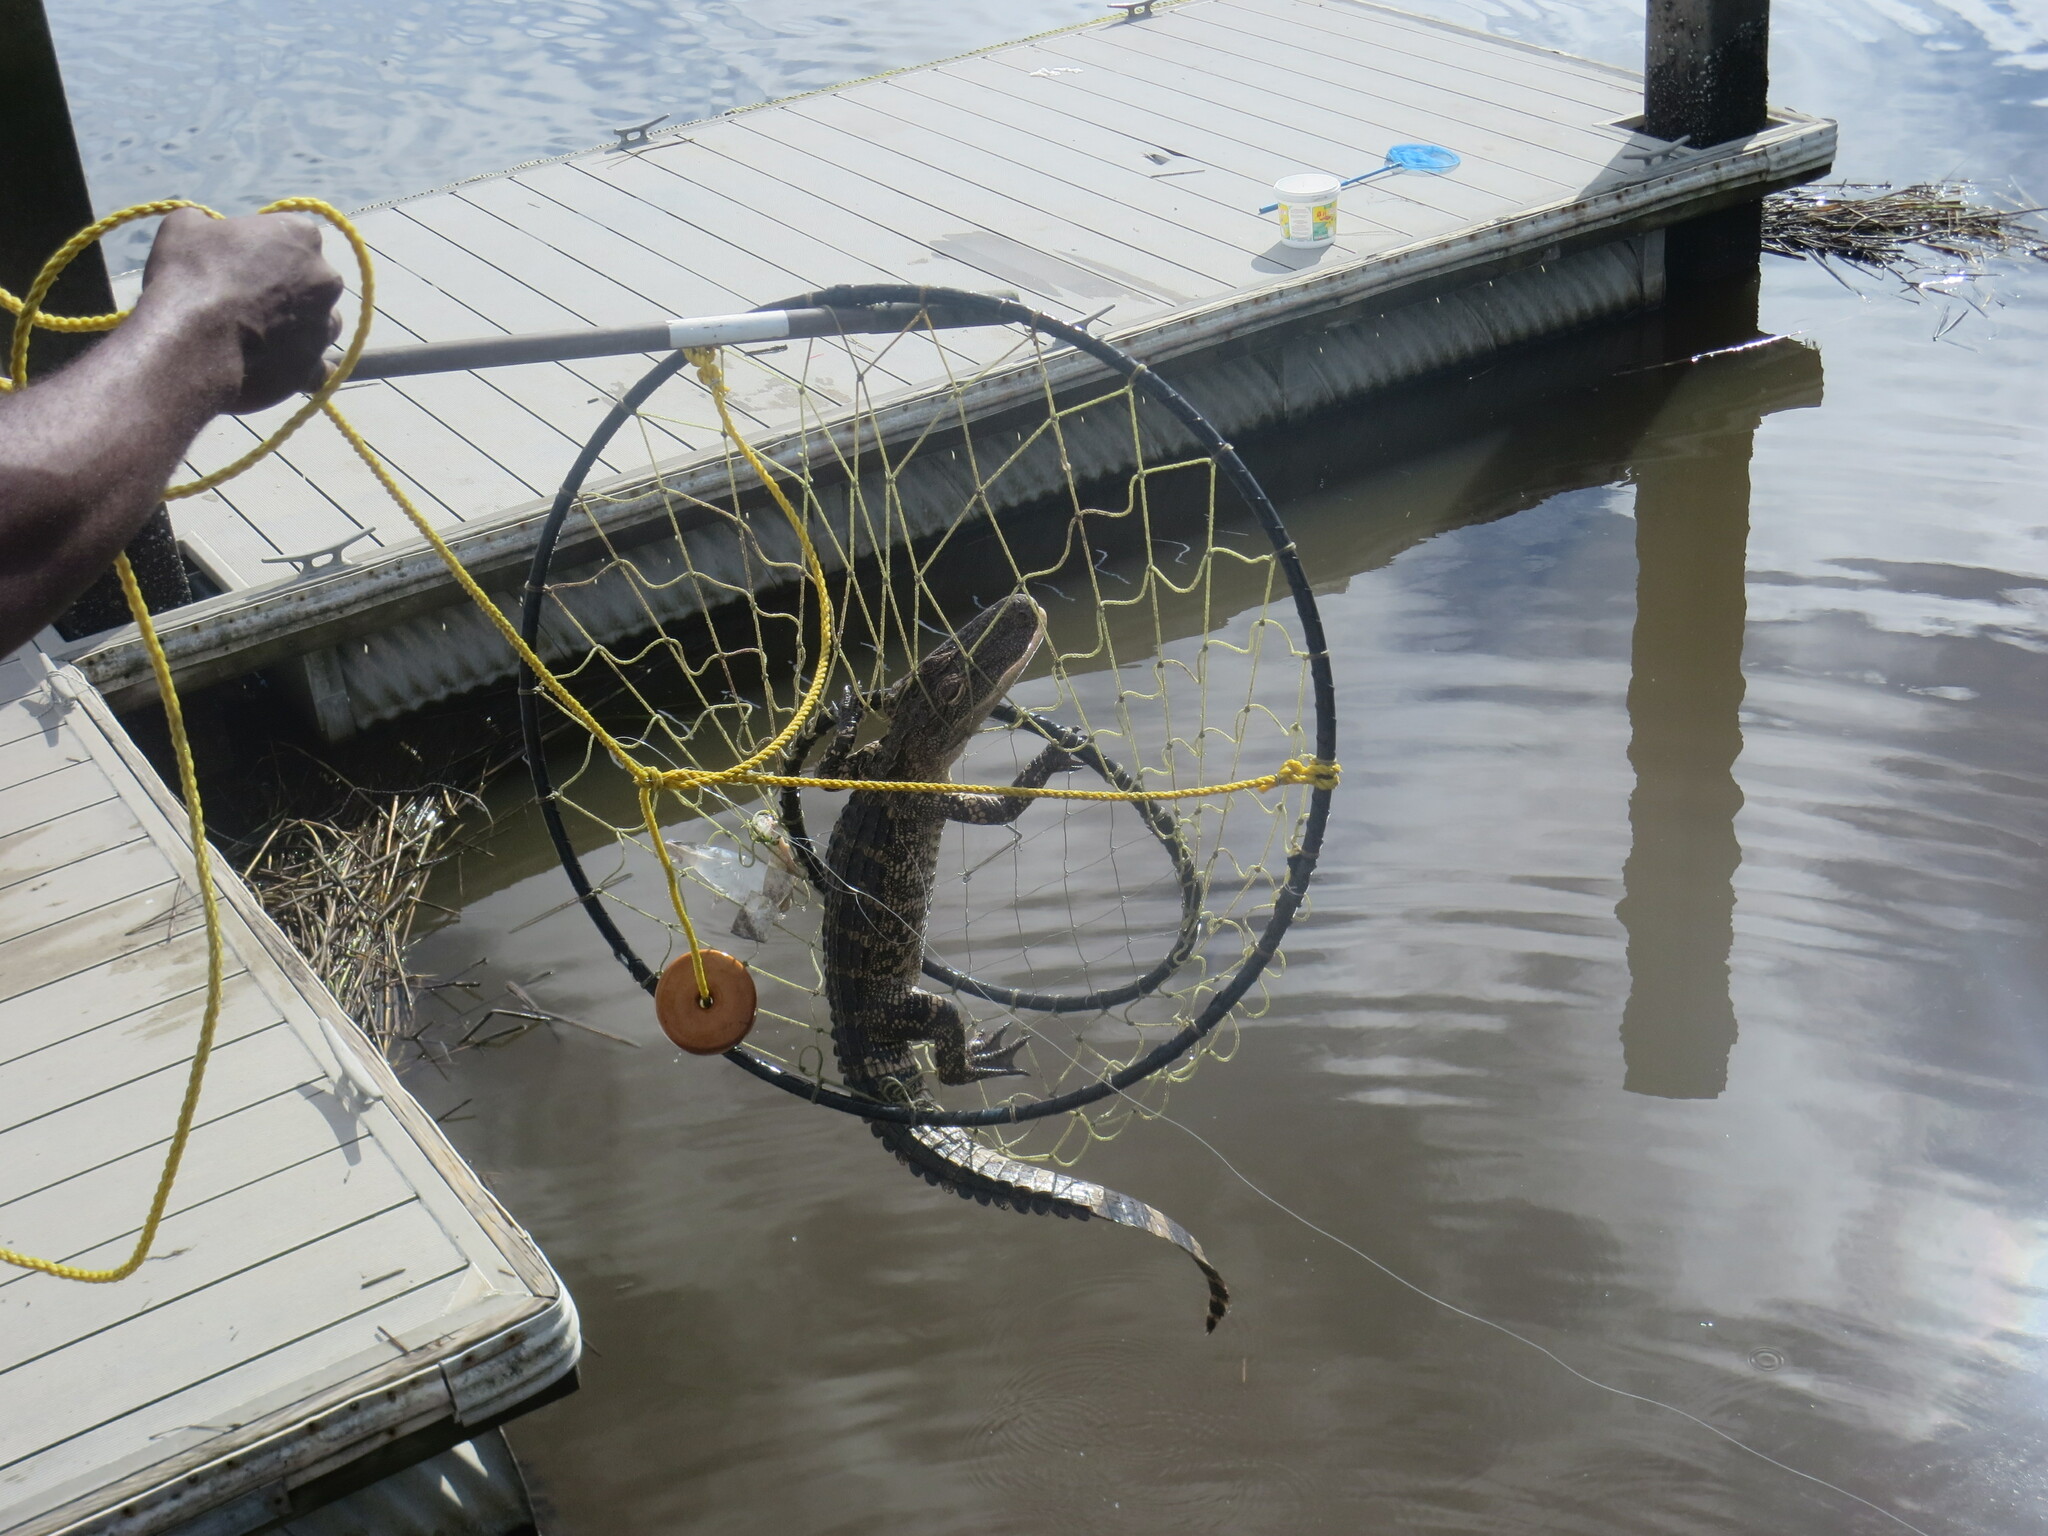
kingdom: Animalia
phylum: Chordata
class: Crocodylia
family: Alligatoridae
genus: Alligator
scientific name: Alligator mississippiensis
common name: American alligator
